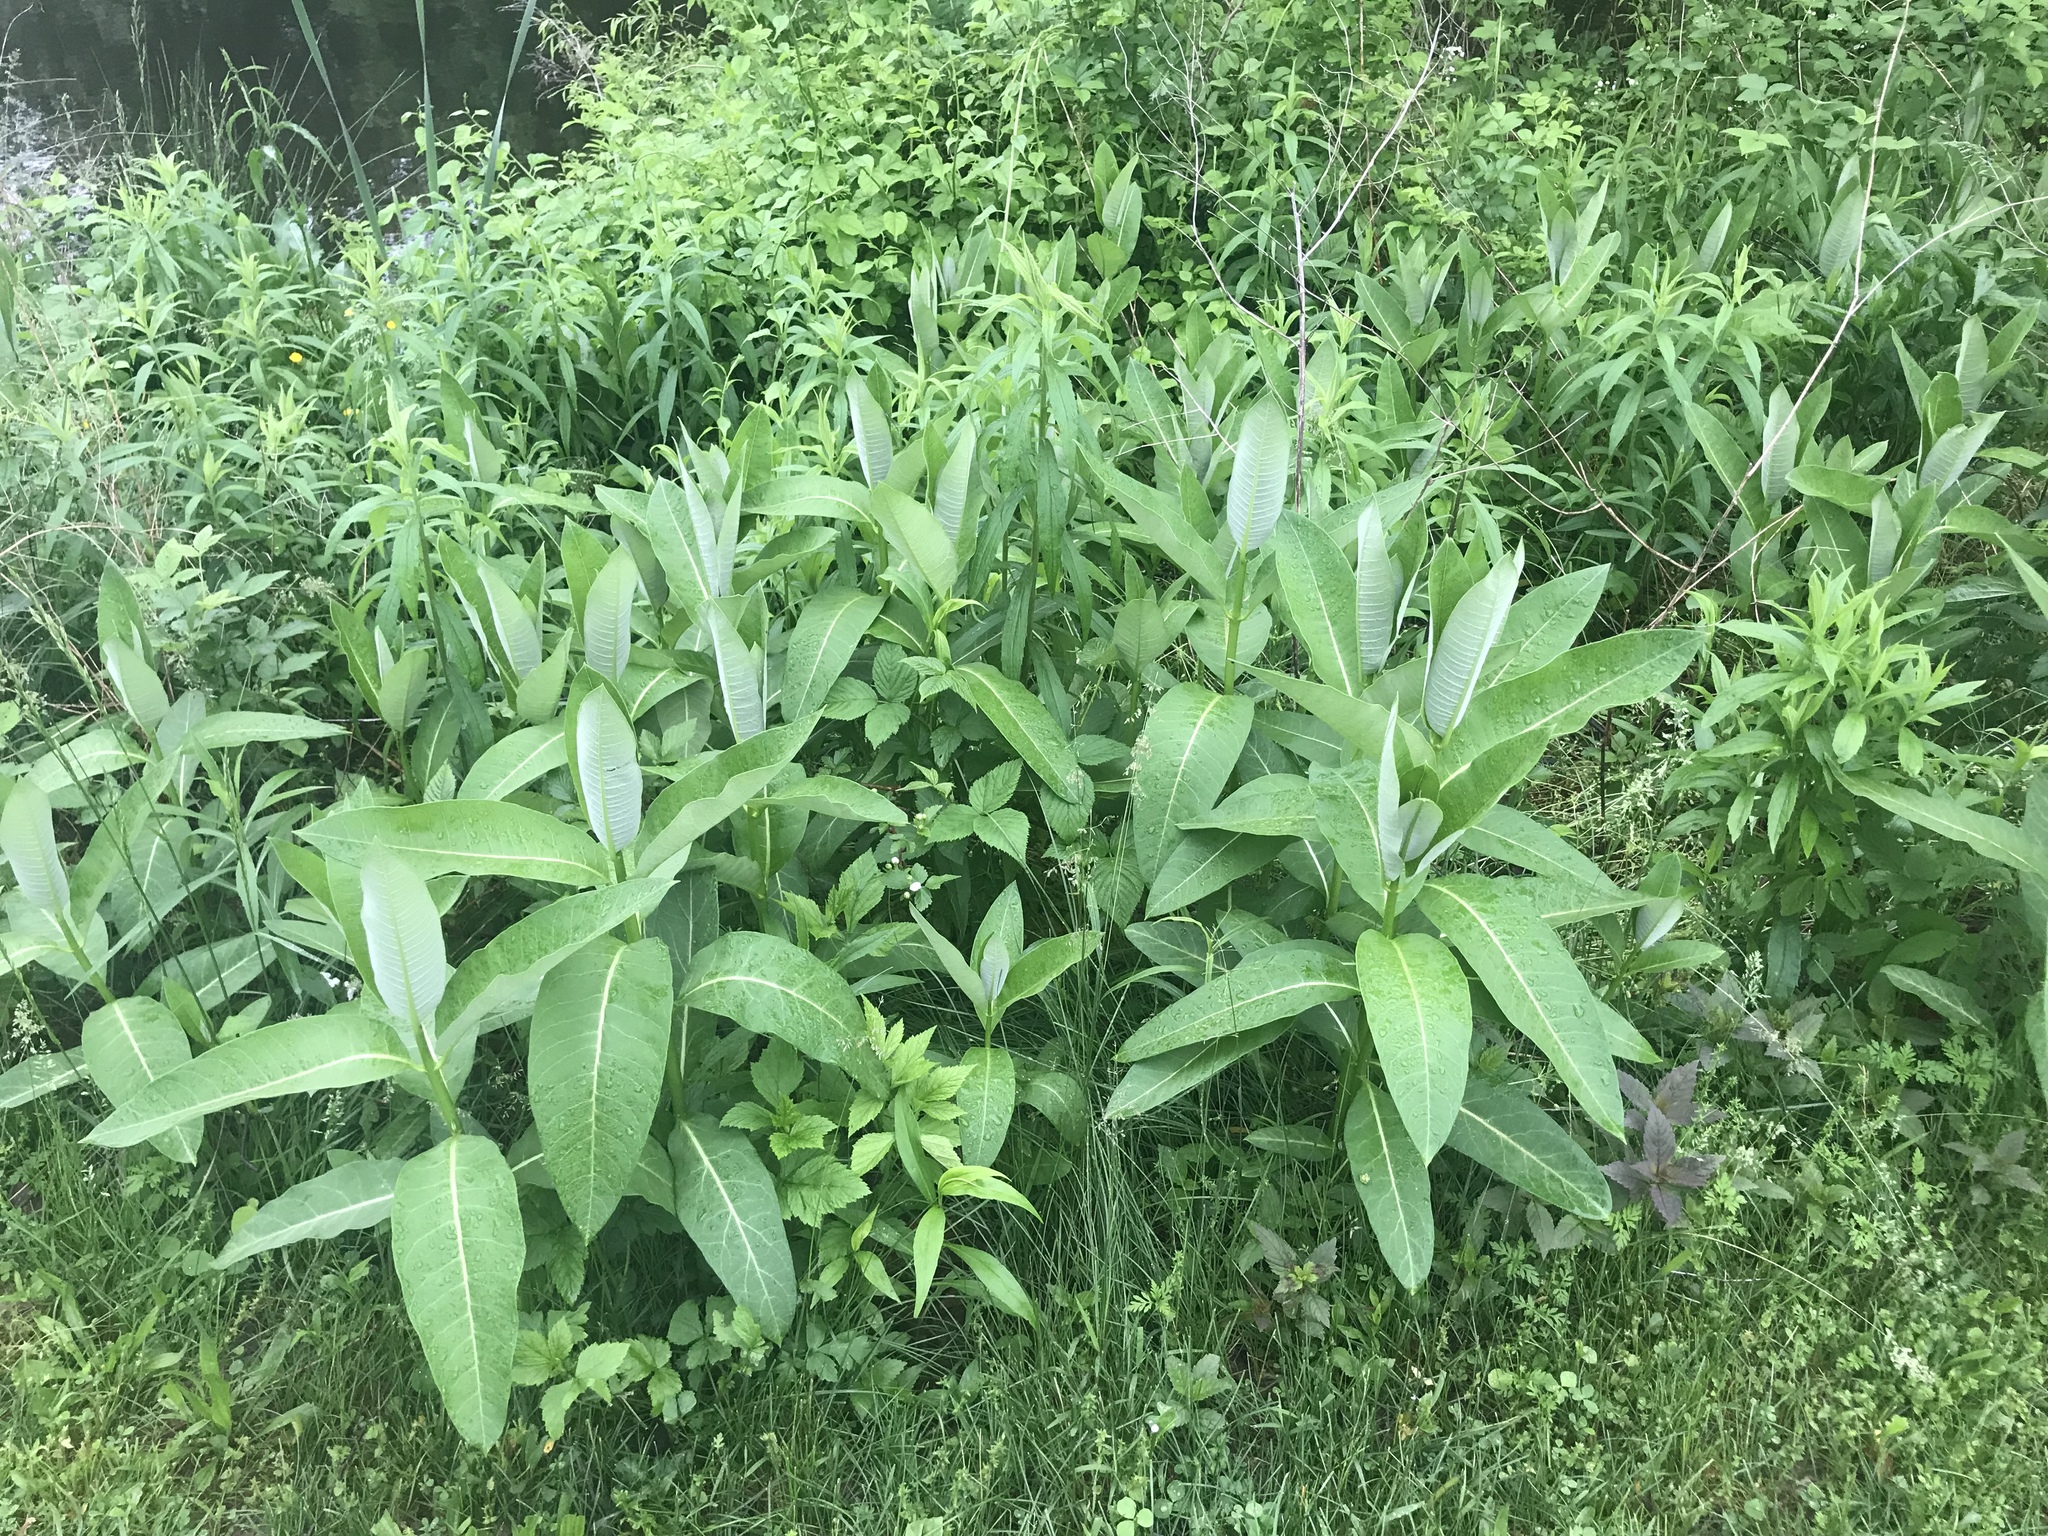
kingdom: Plantae
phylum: Tracheophyta
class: Magnoliopsida
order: Gentianales
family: Apocynaceae
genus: Asclepias
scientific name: Asclepias syriaca
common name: Common milkweed
